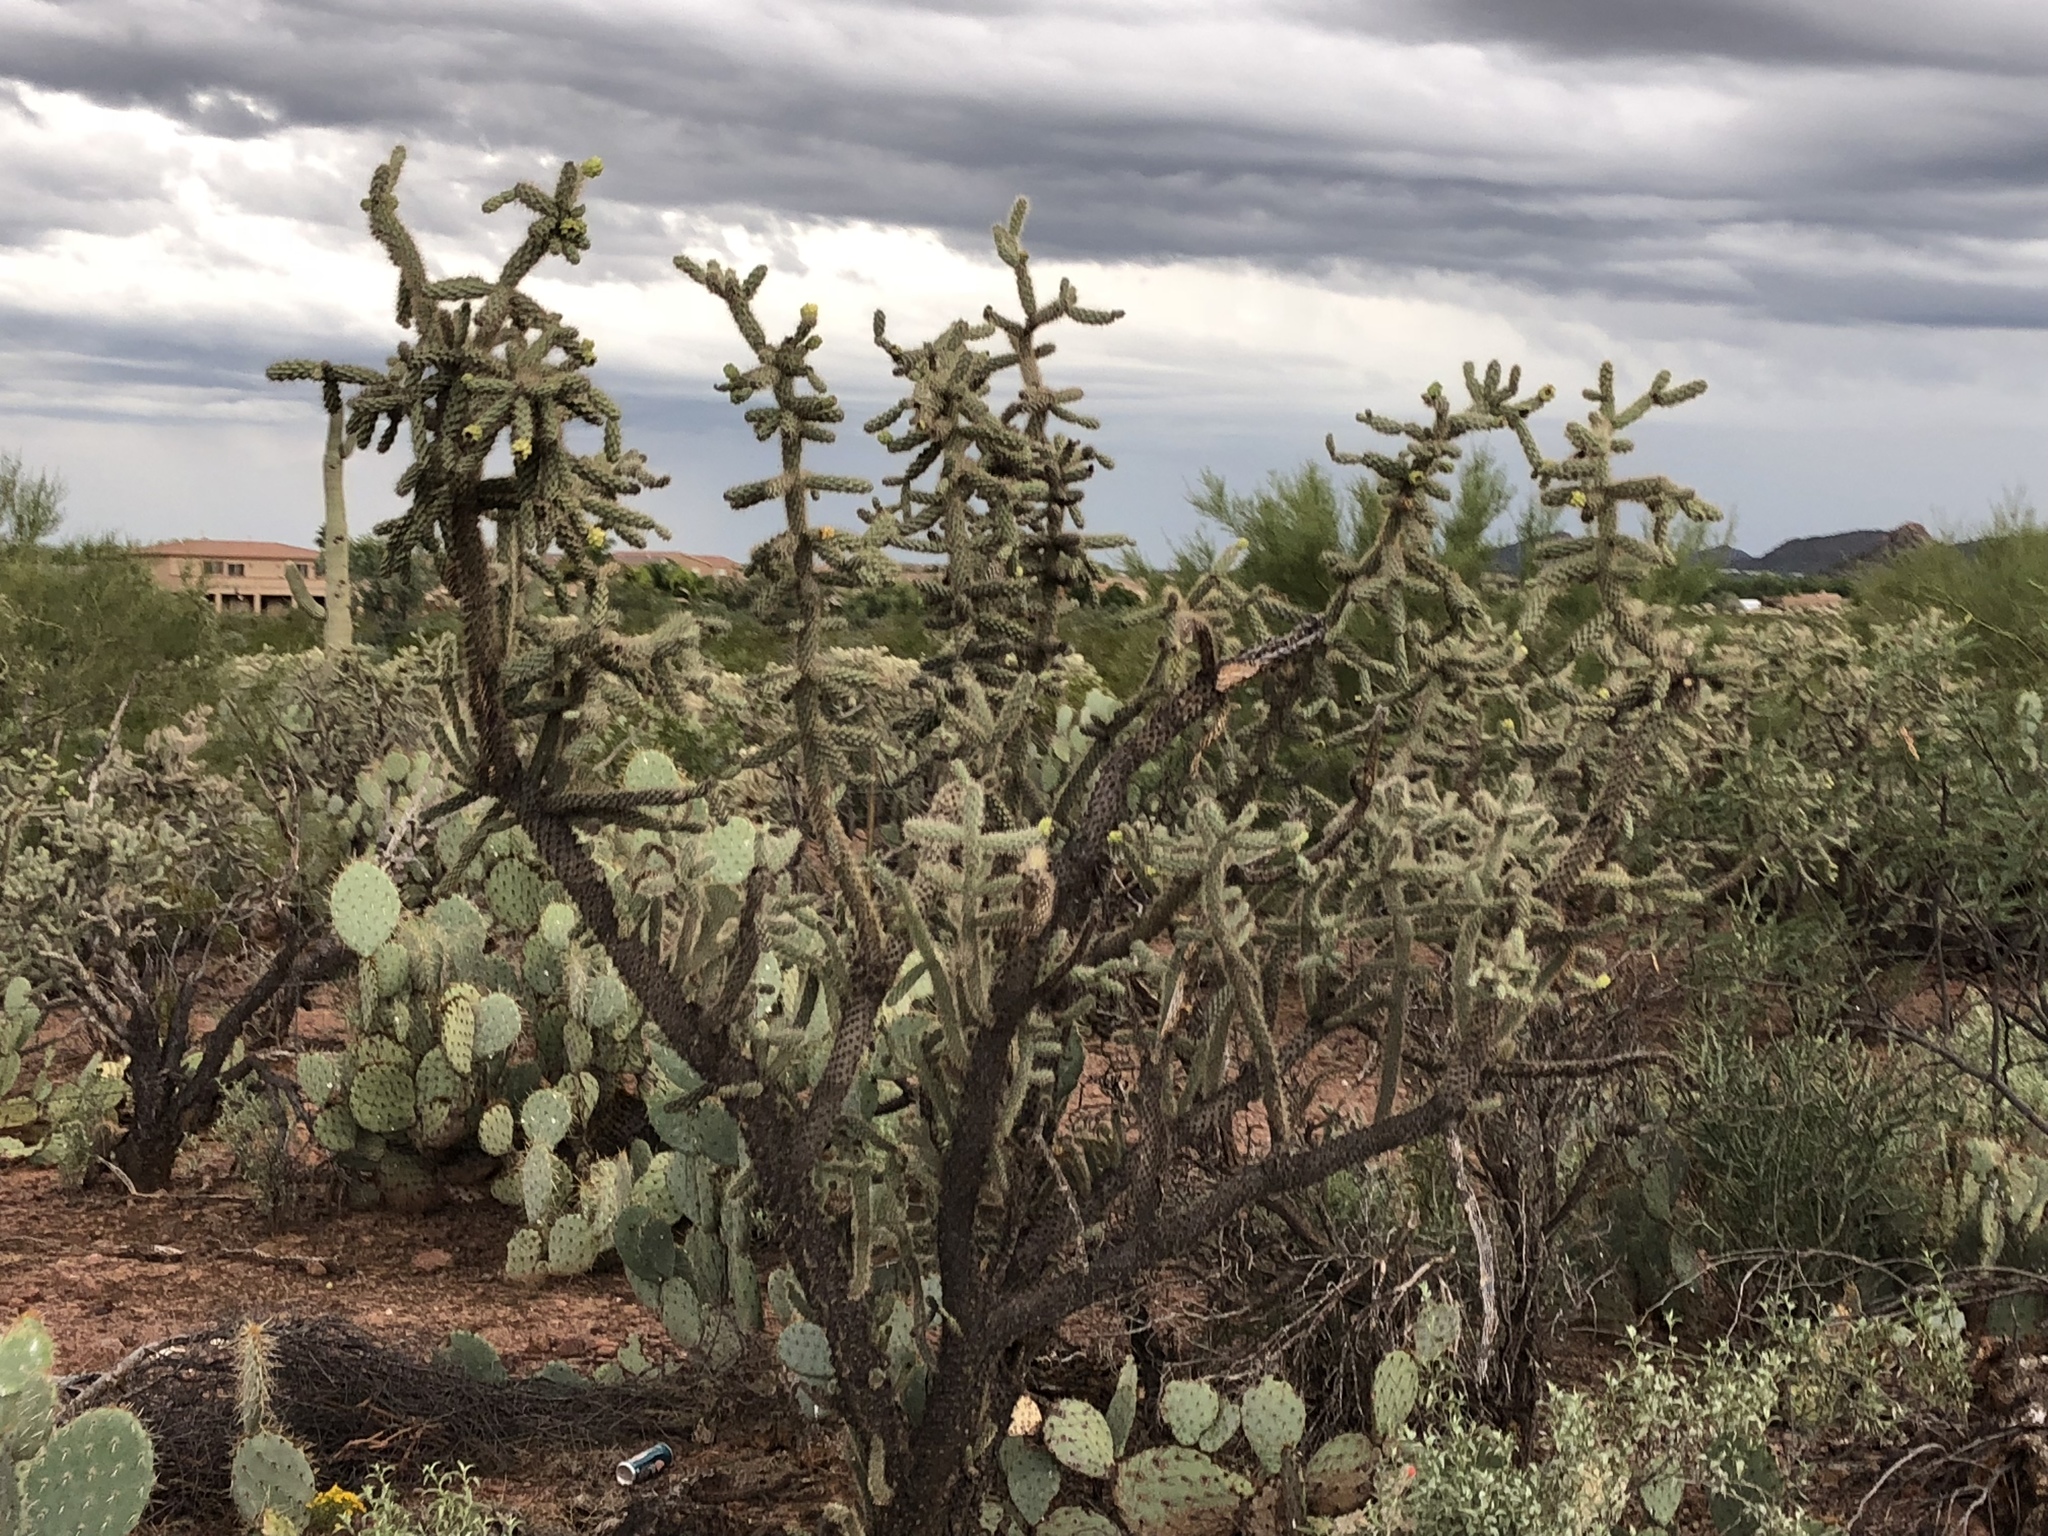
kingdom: Plantae
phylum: Tracheophyta
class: Magnoliopsida
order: Caryophyllales
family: Cactaceae
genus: Cylindropuntia
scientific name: Cylindropuntia imbricata
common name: Candelabrum cactus
